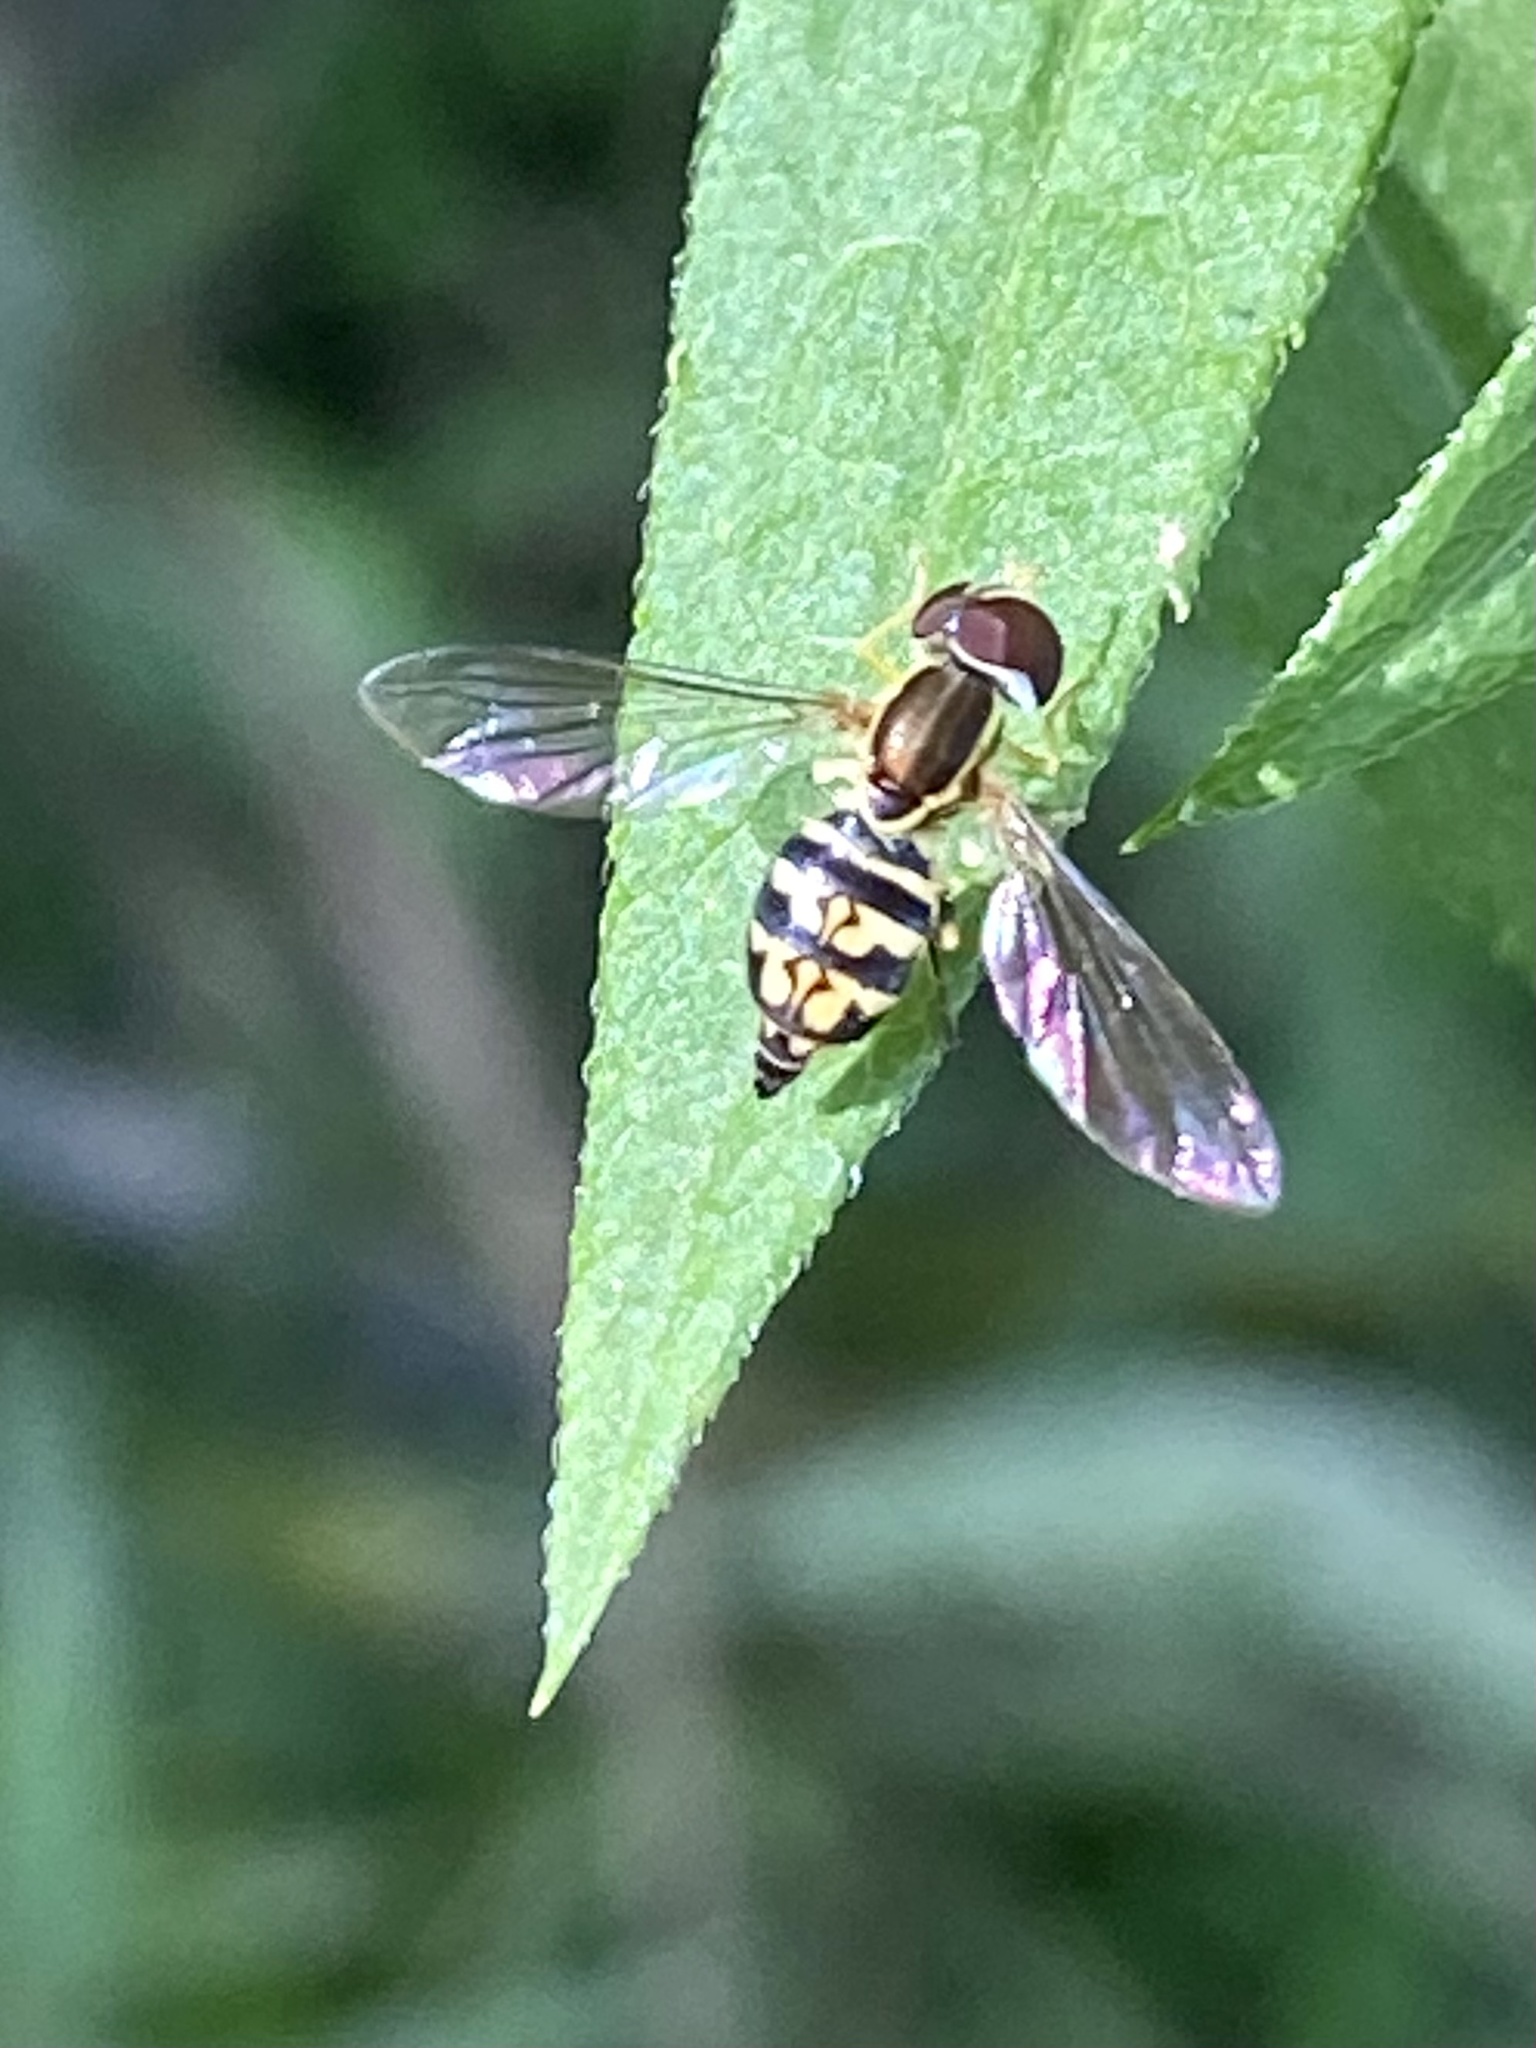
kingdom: Animalia
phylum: Arthropoda
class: Insecta
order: Diptera
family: Syrphidae
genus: Toxomerus
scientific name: Toxomerus geminatus
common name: Eastern calligrapher
